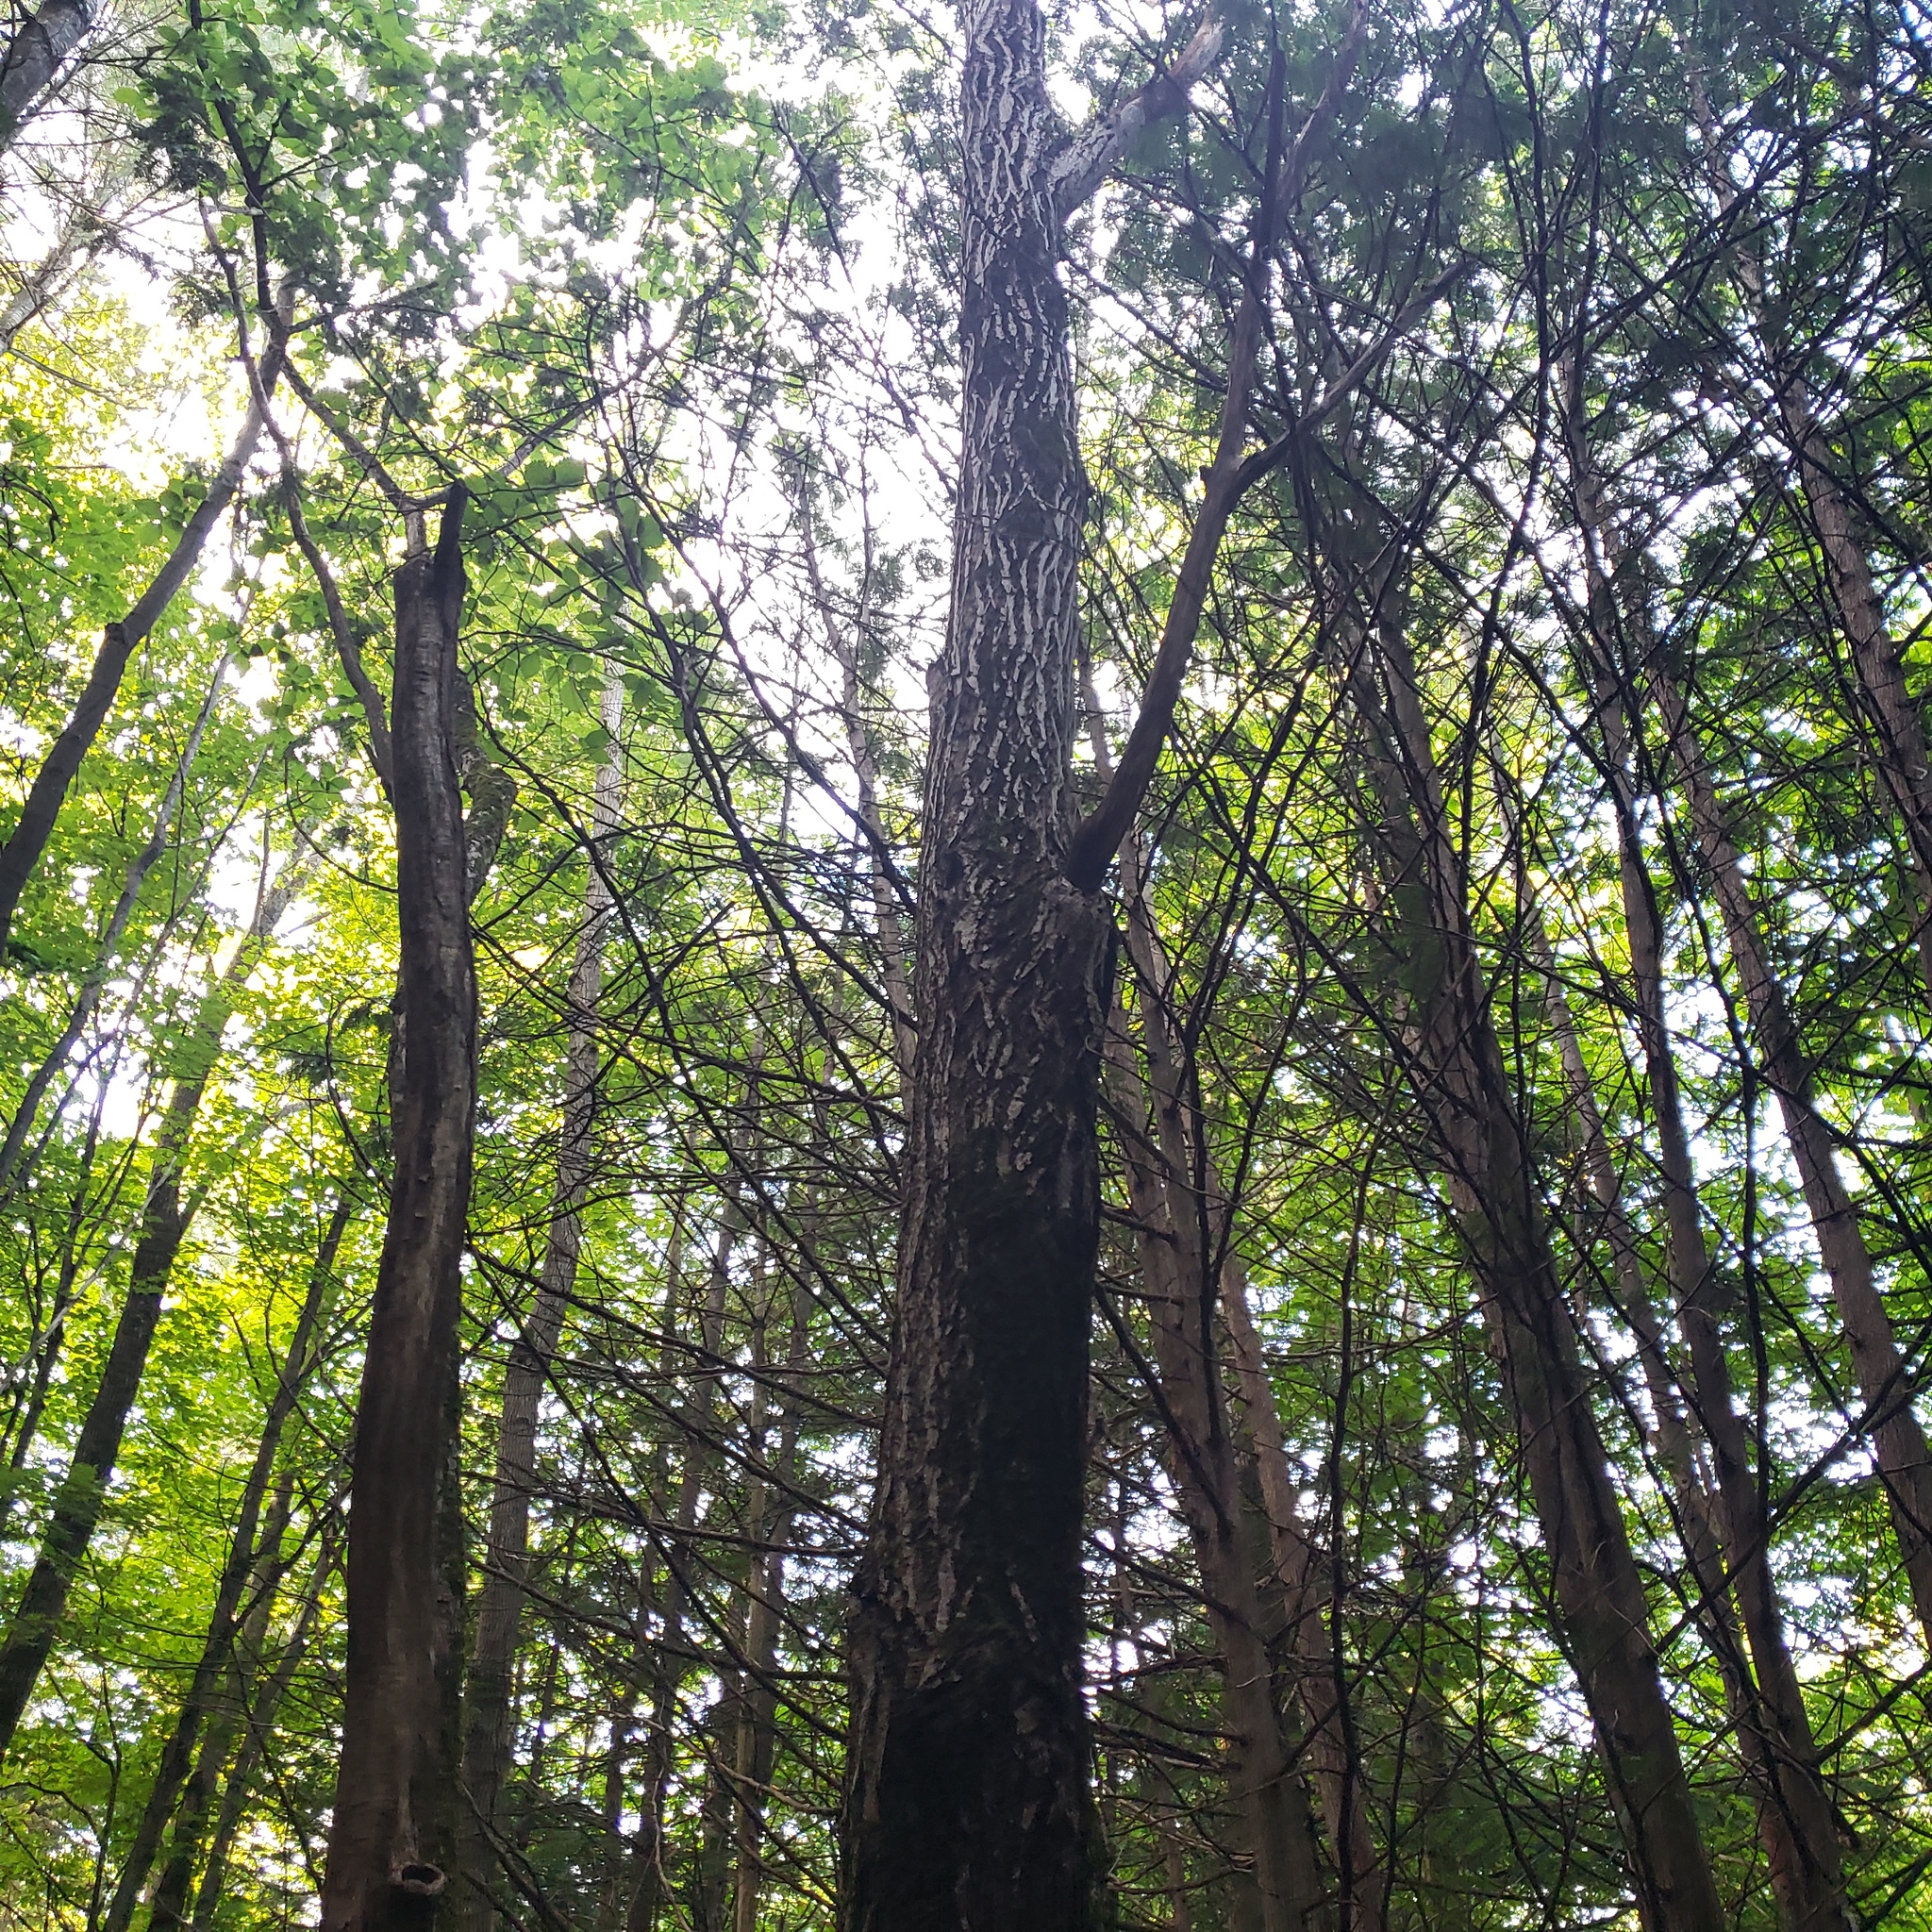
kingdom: Plantae
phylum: Tracheophyta
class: Magnoliopsida
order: Fagales
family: Juglandaceae
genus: Juglans
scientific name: Juglans cinerea
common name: Butternut
